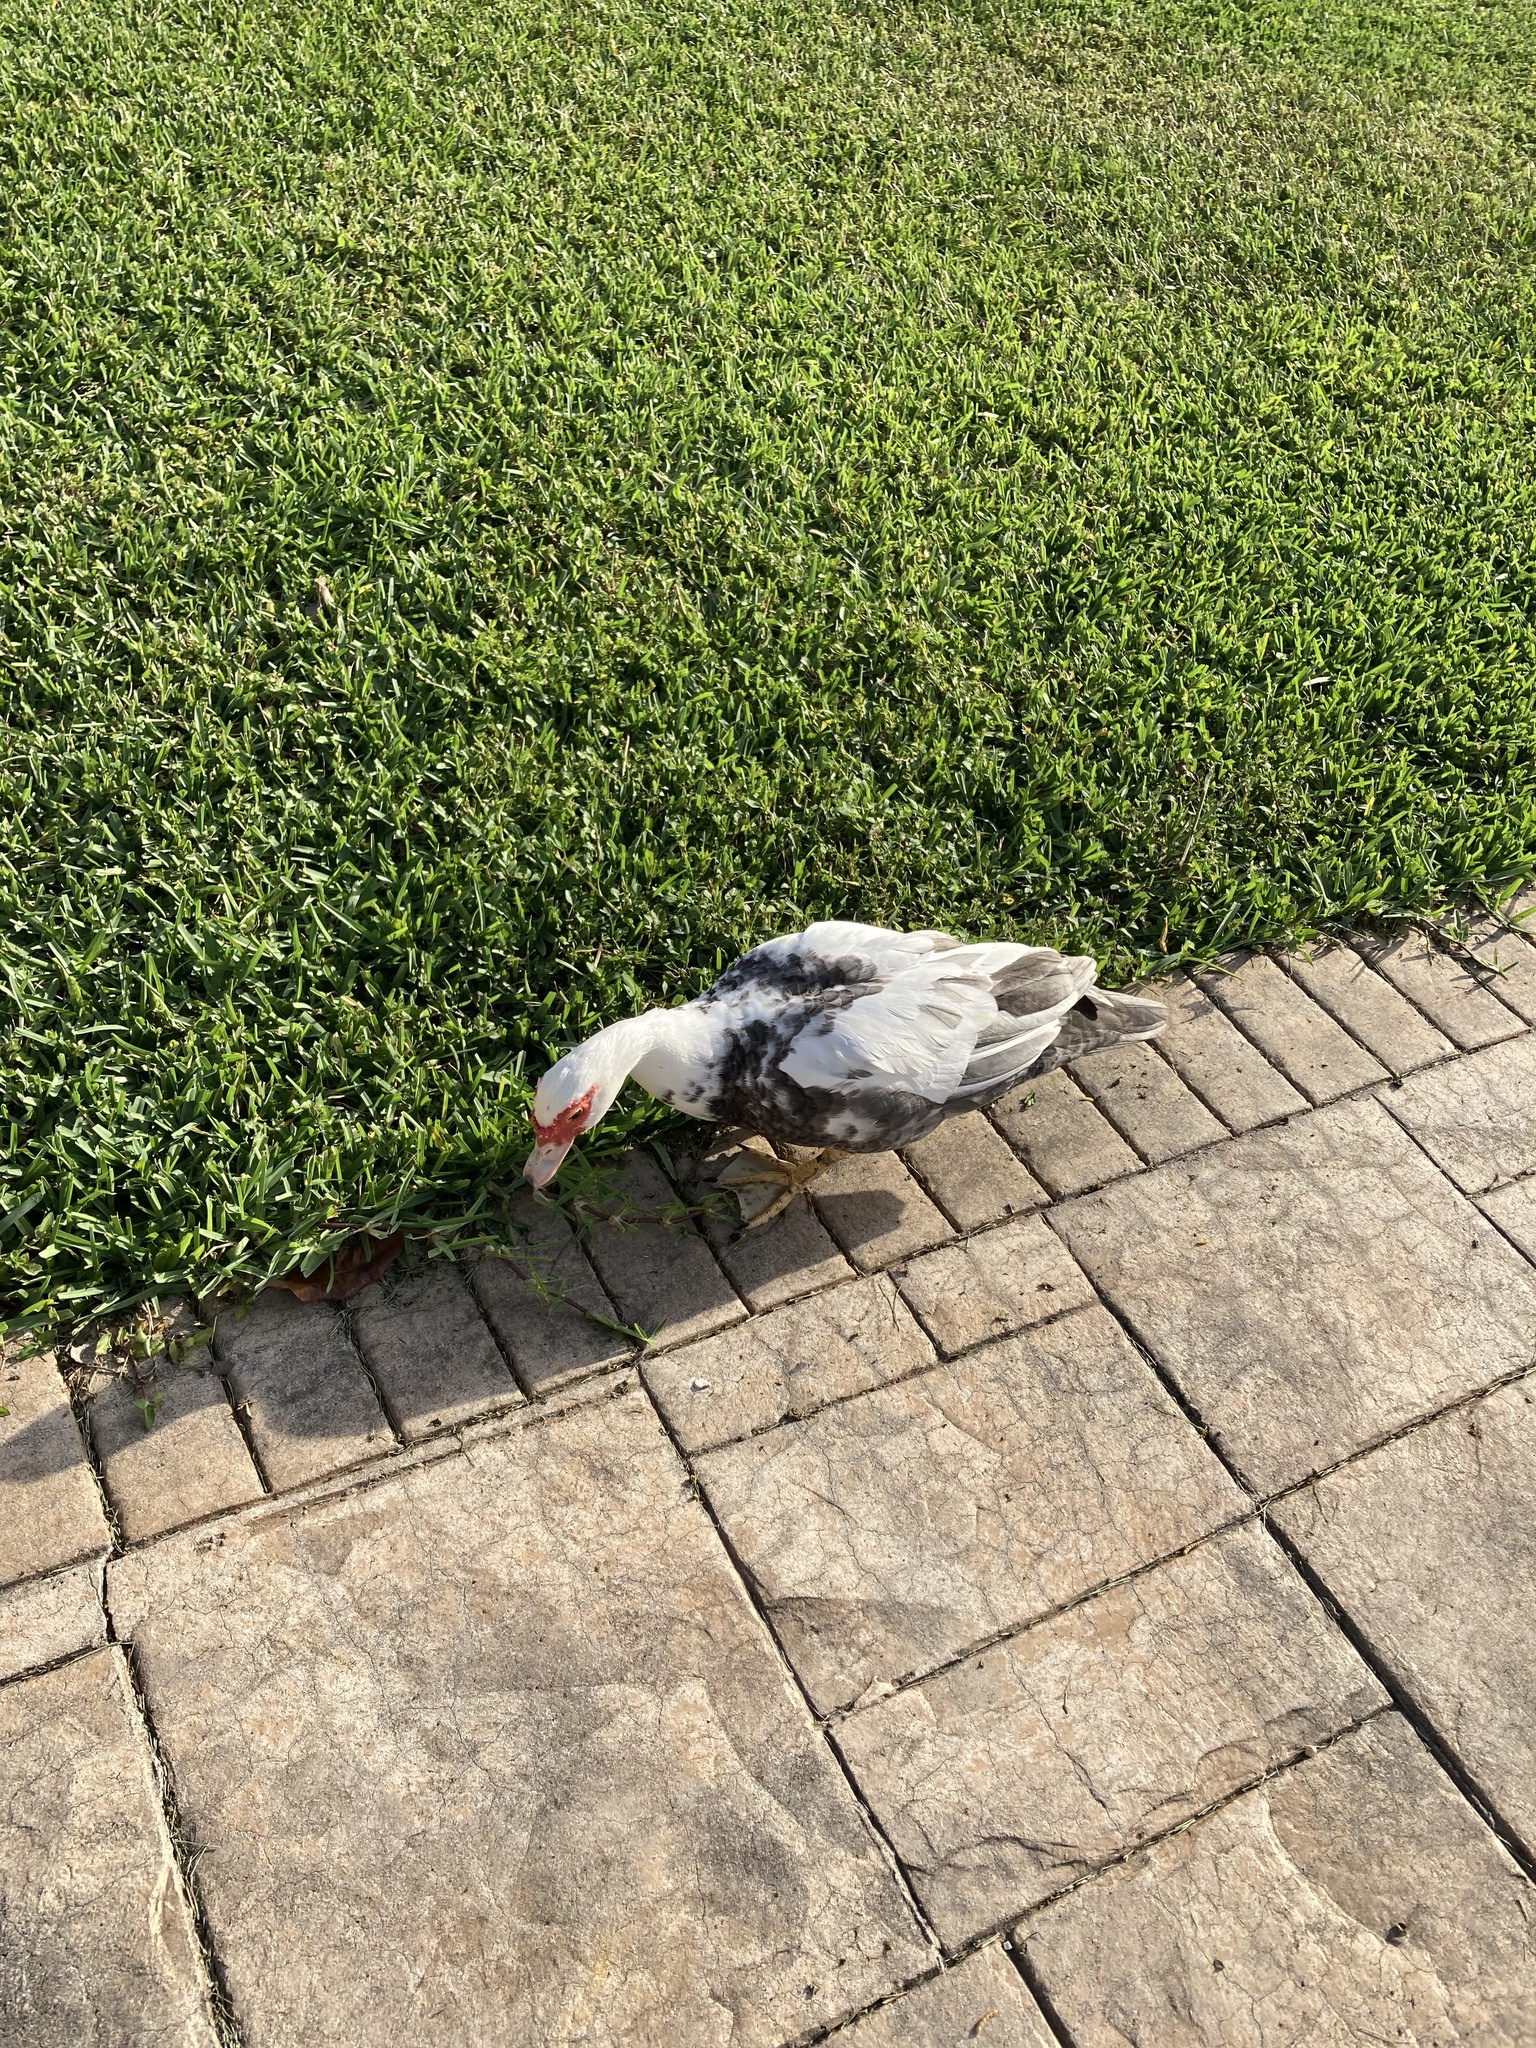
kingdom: Animalia
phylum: Chordata
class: Aves
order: Anseriformes
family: Anatidae
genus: Cairina
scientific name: Cairina moschata
